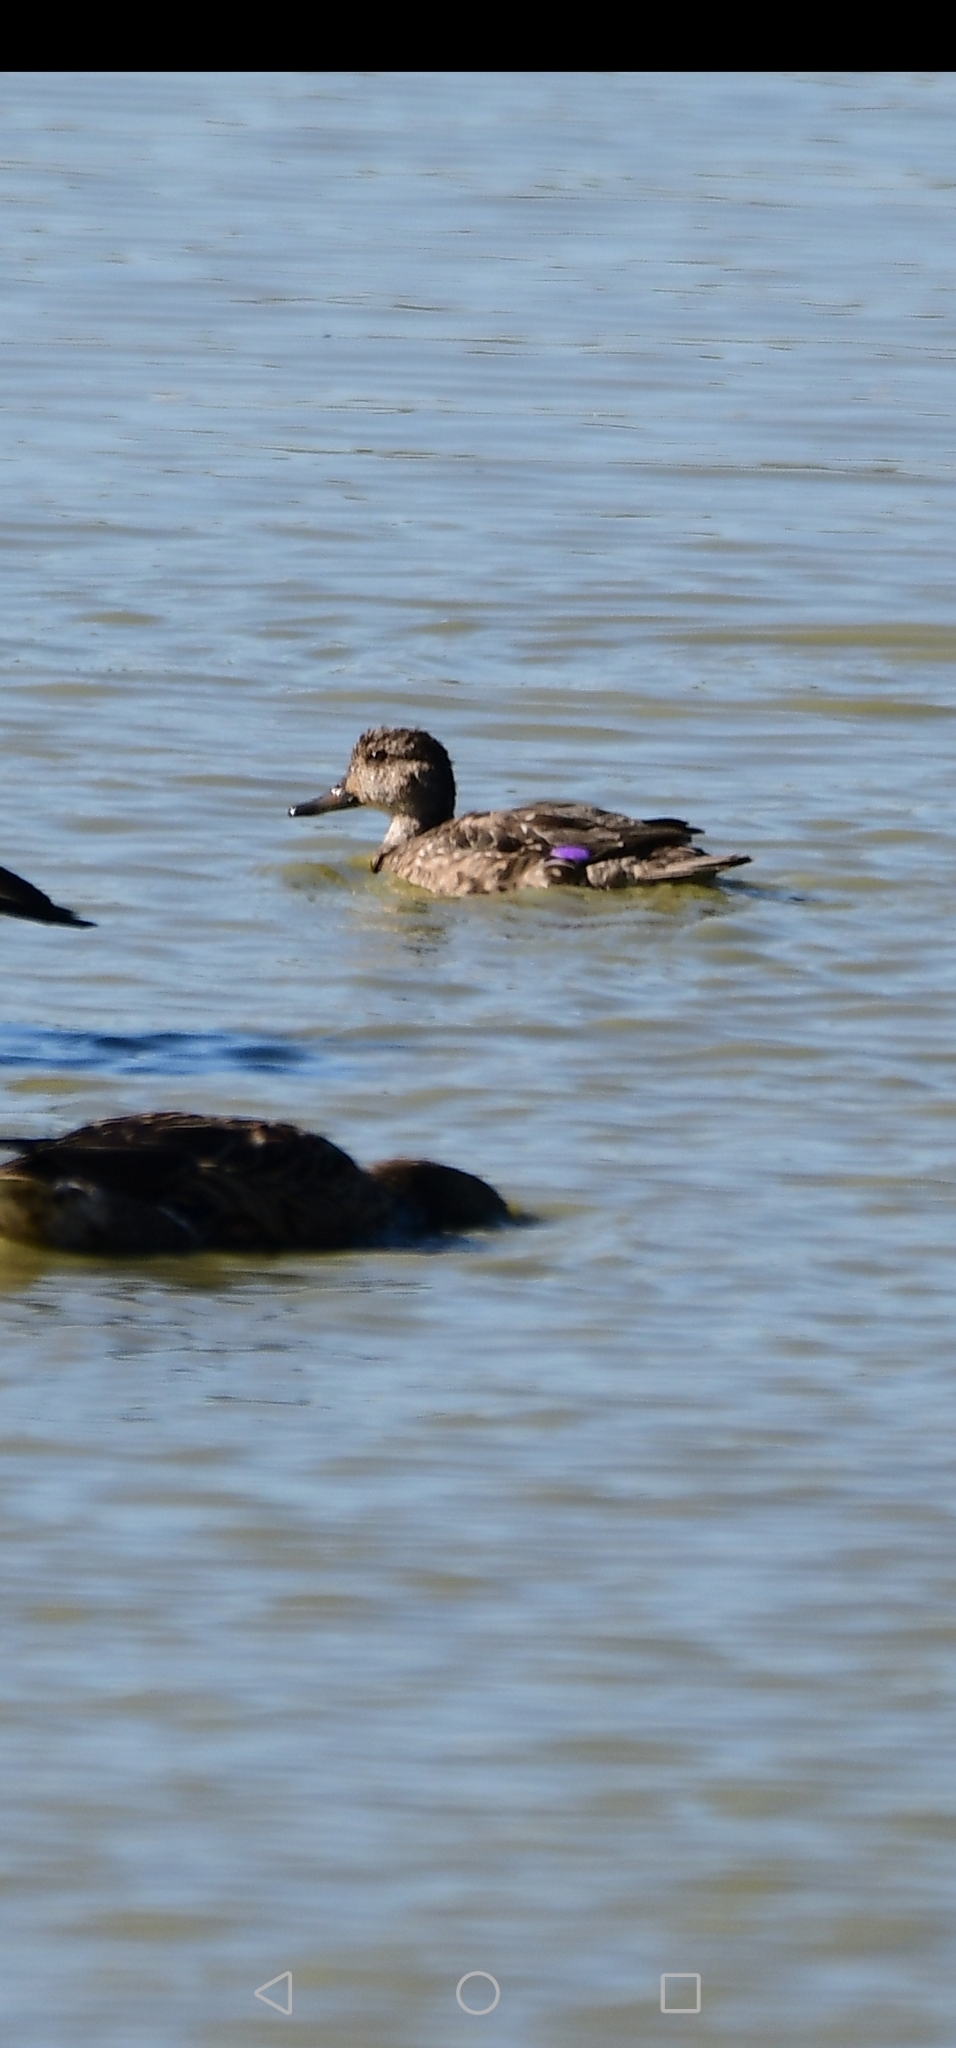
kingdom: Animalia
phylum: Chordata
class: Aves
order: Anseriformes
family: Anatidae
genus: Anas
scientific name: Anas crecca
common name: Eurasian teal
